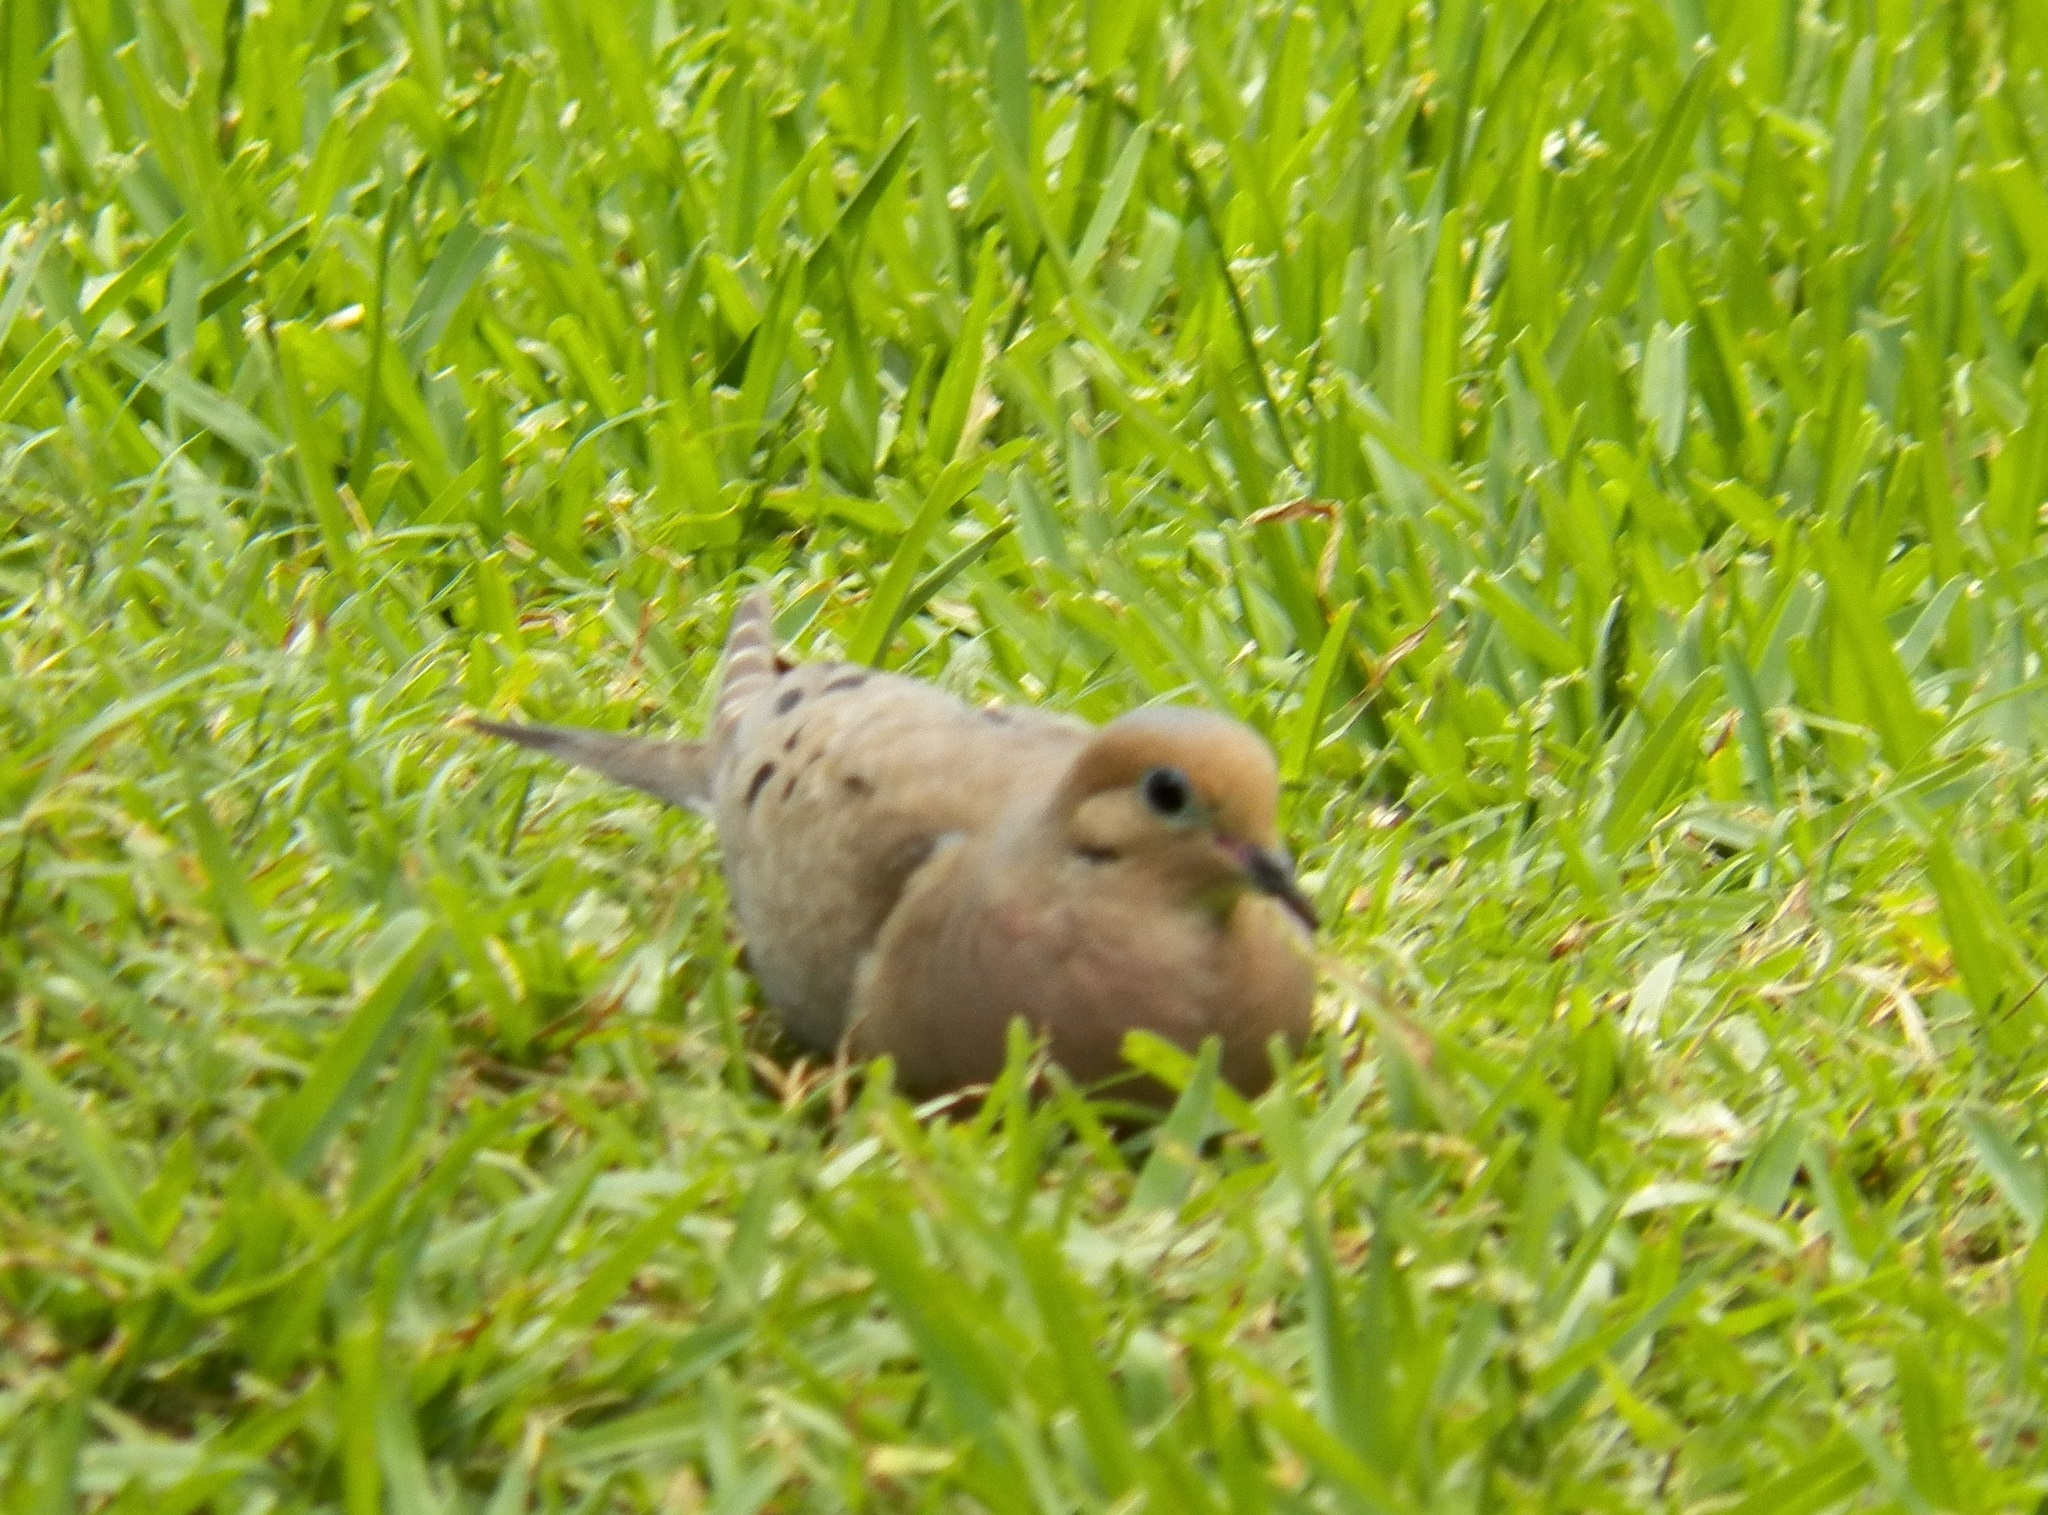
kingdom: Animalia
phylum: Chordata
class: Aves
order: Columbiformes
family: Columbidae
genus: Zenaida
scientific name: Zenaida macroura
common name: Mourning dove
